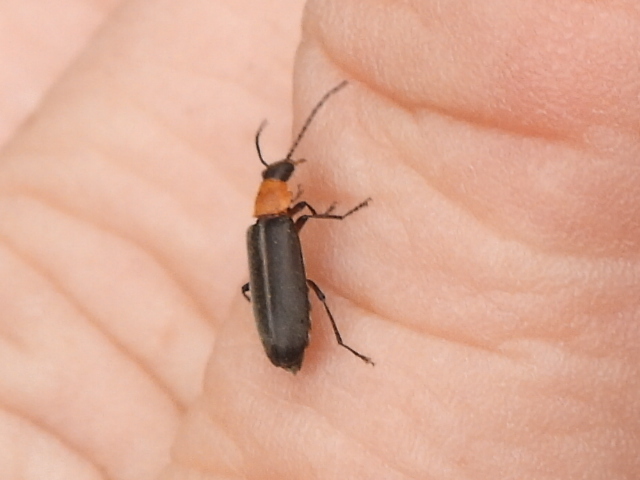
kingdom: Animalia
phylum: Arthropoda
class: Insecta
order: Coleoptera
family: Melandryidae
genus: Osphya
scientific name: Osphya varians
